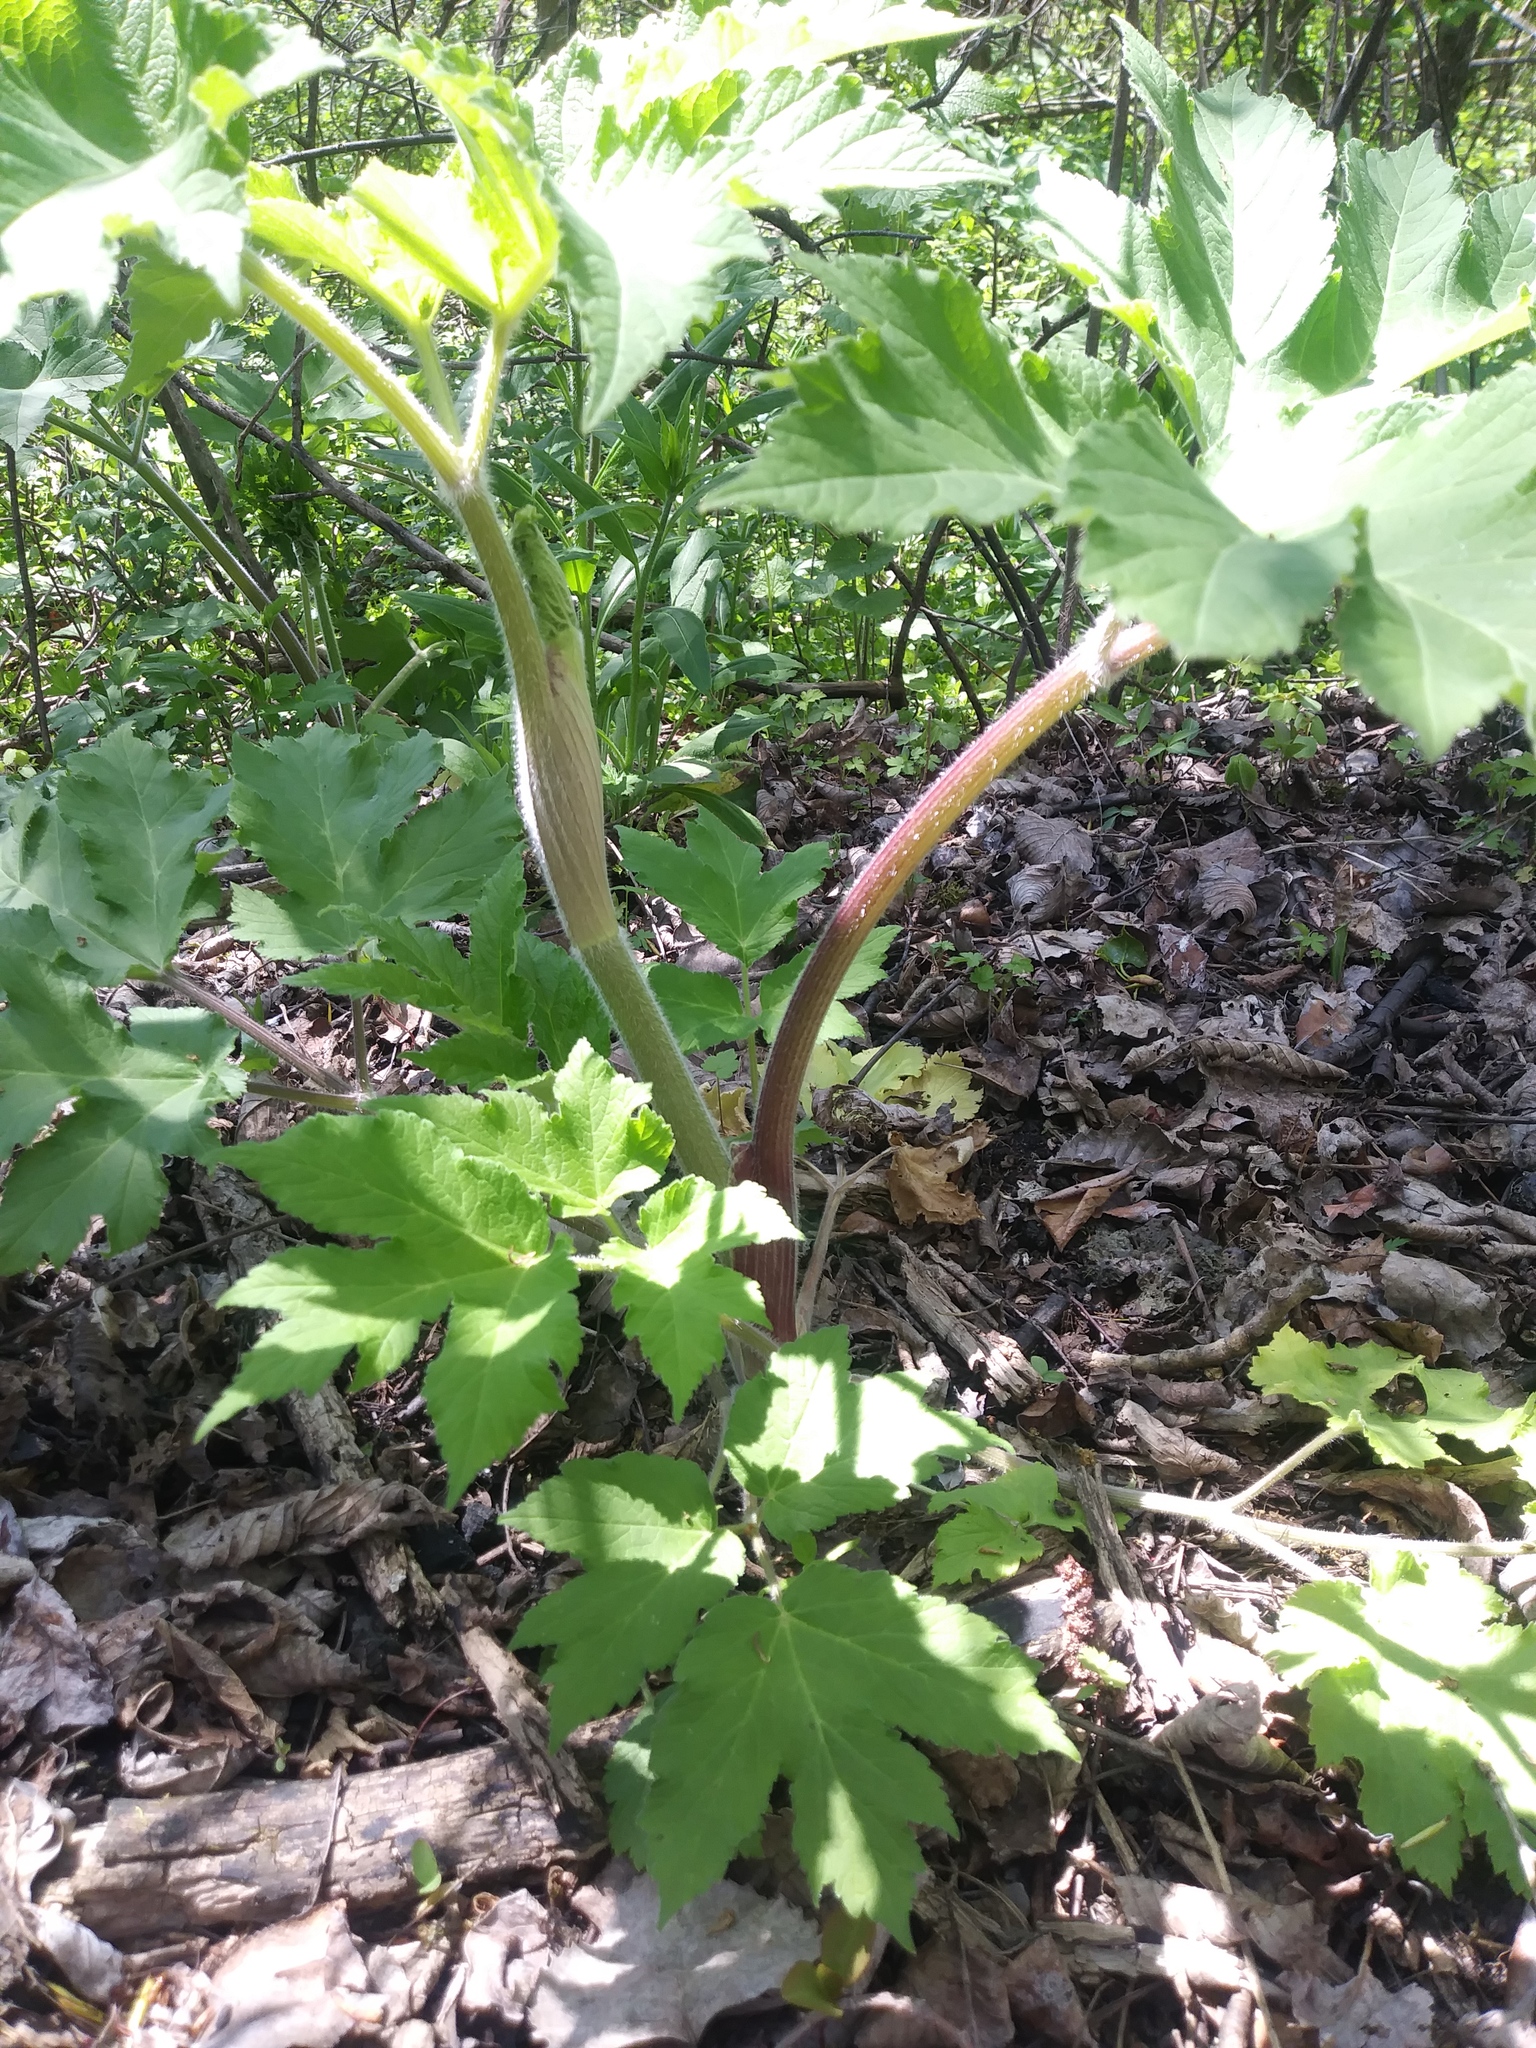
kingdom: Plantae
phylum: Tracheophyta
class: Magnoliopsida
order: Apiales
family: Apiaceae
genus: Heracleum
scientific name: Heracleum maximum
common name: American cow parsnip
